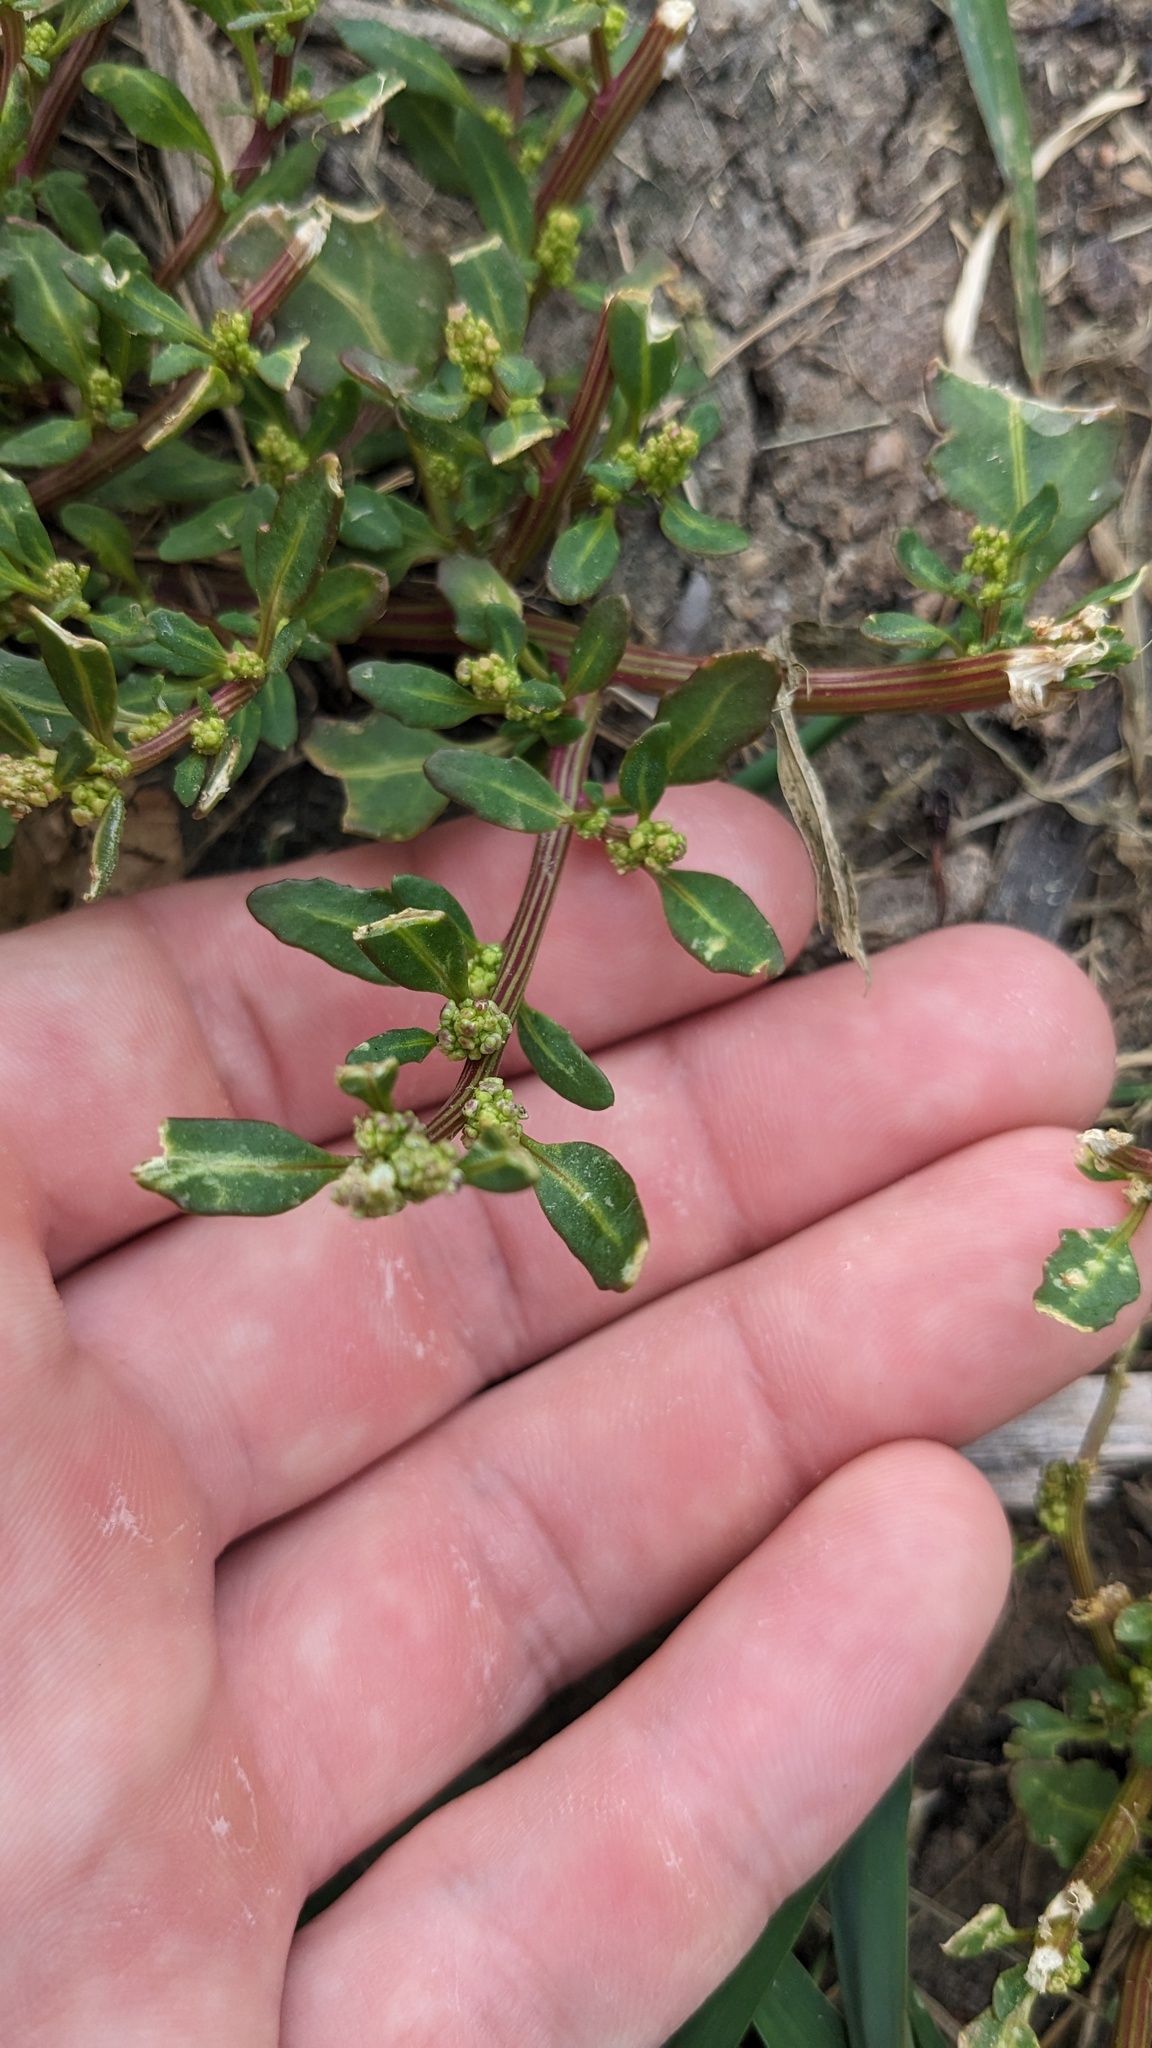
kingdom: Plantae
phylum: Tracheophyta
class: Magnoliopsida
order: Caryophyllales
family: Amaranthaceae
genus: Oxybasis
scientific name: Oxybasis glauca
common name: Glaucous goosefoot
